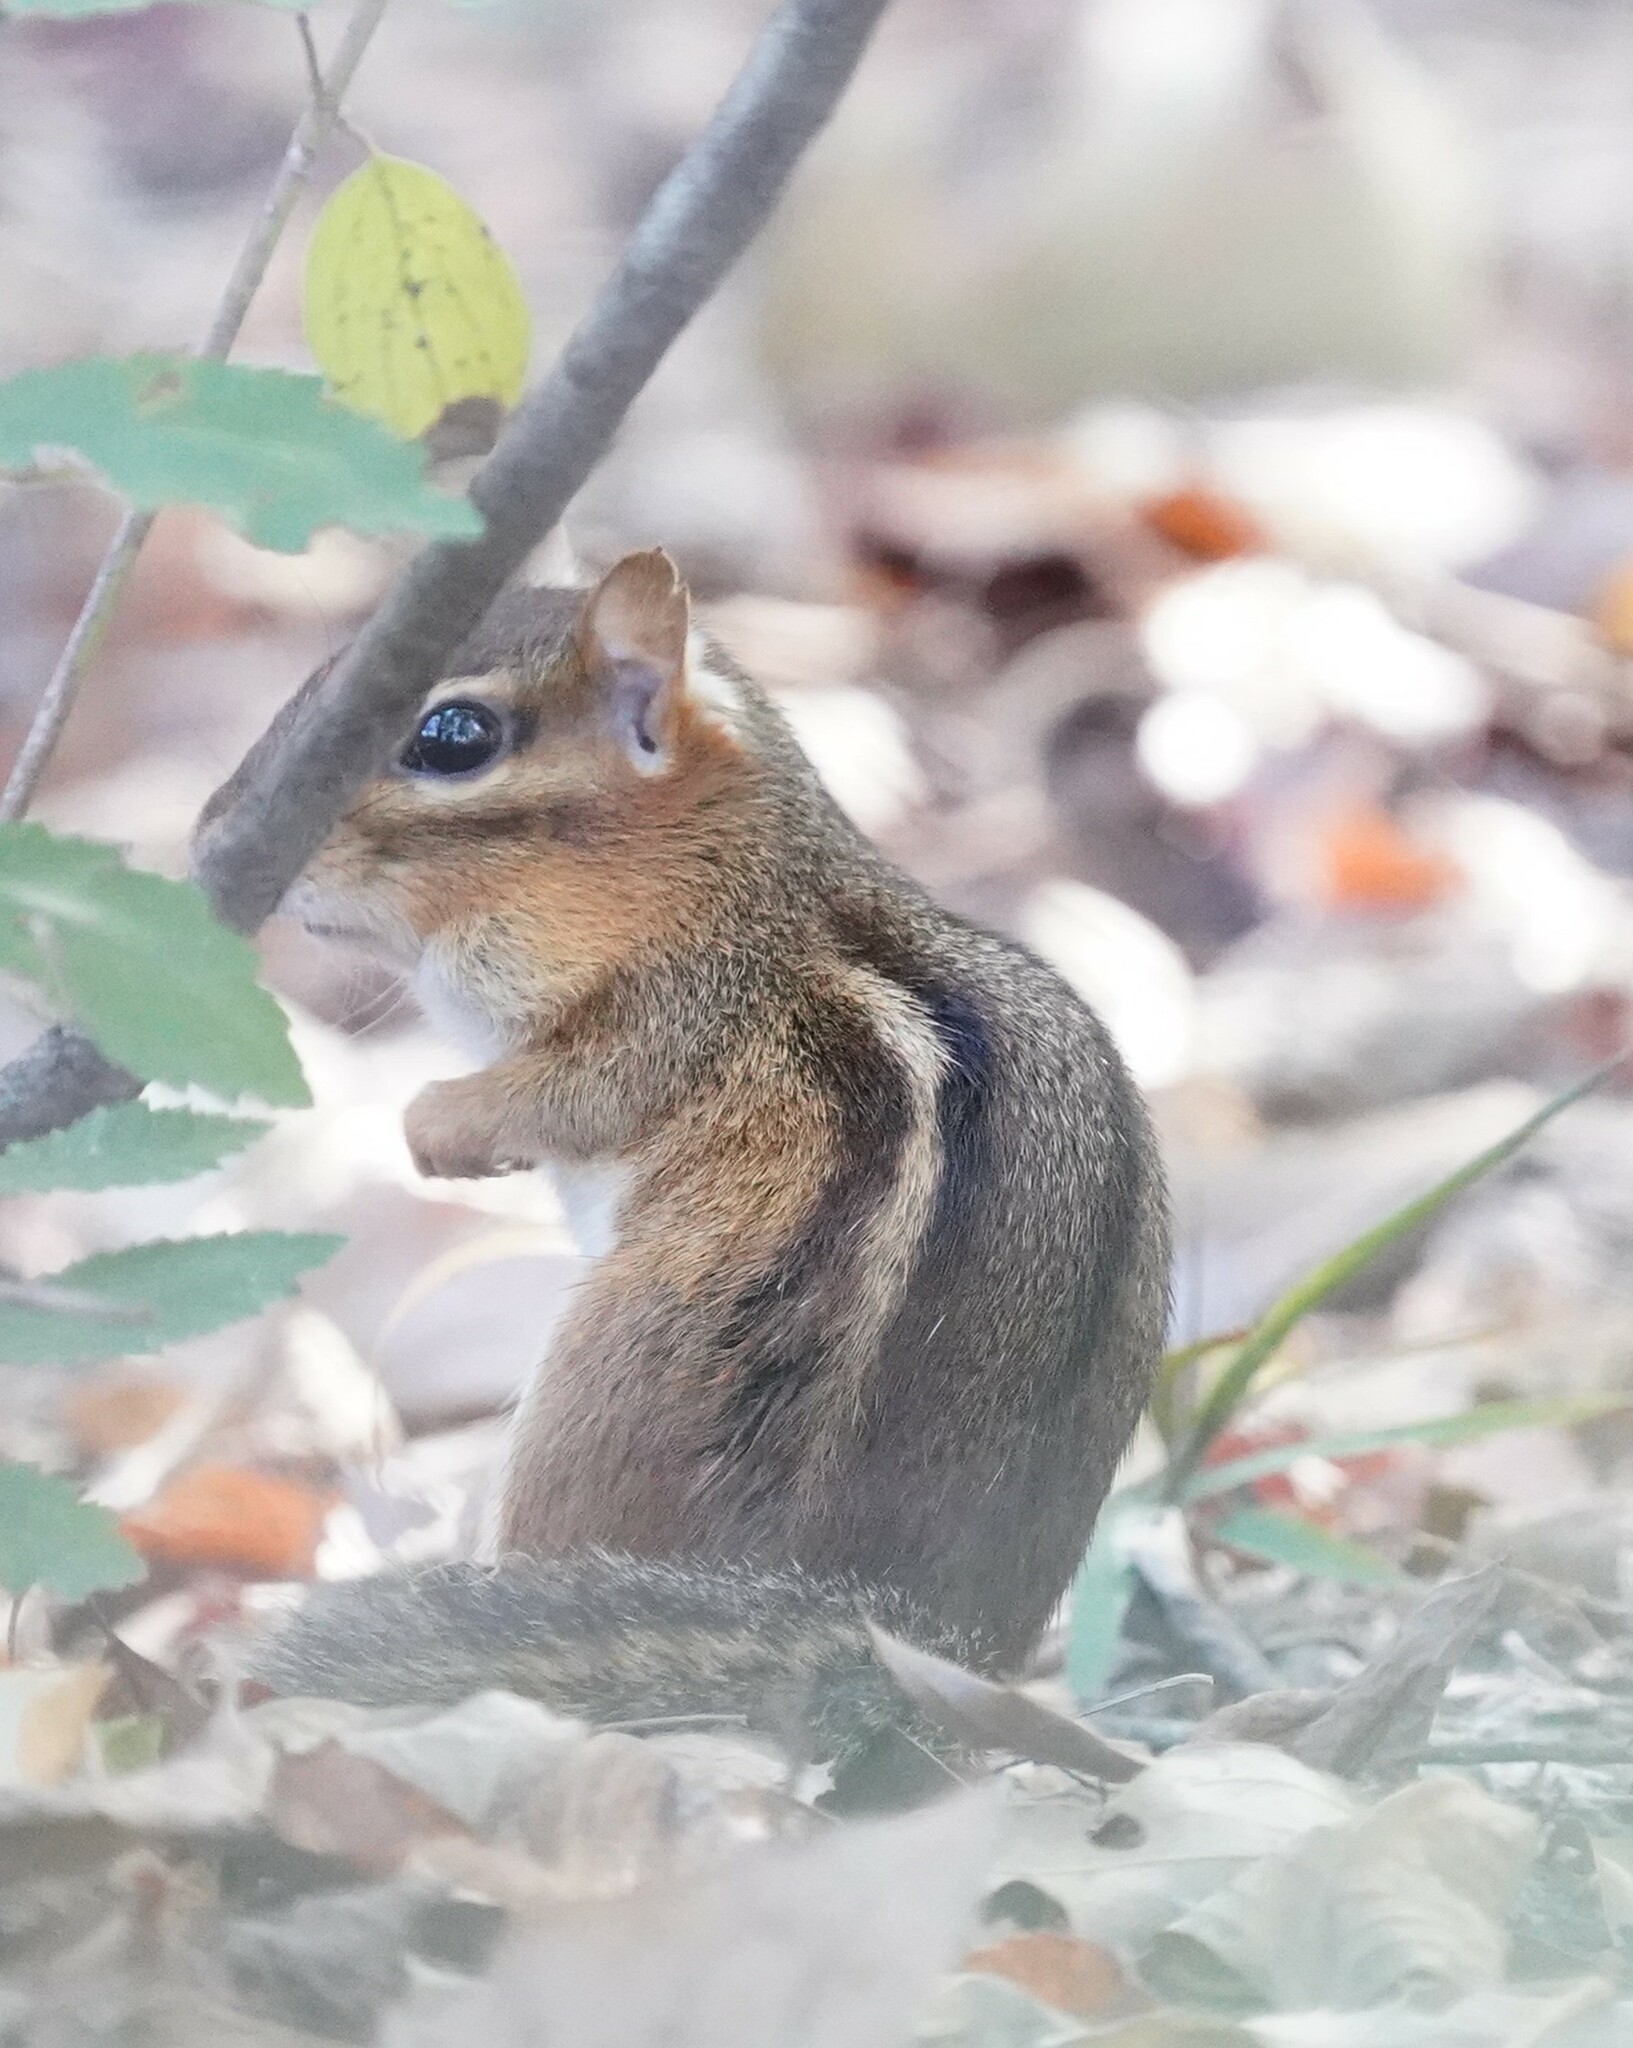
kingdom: Animalia
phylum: Chordata
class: Mammalia
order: Rodentia
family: Sciuridae
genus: Tamias
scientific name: Tamias striatus
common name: Eastern chipmunk
